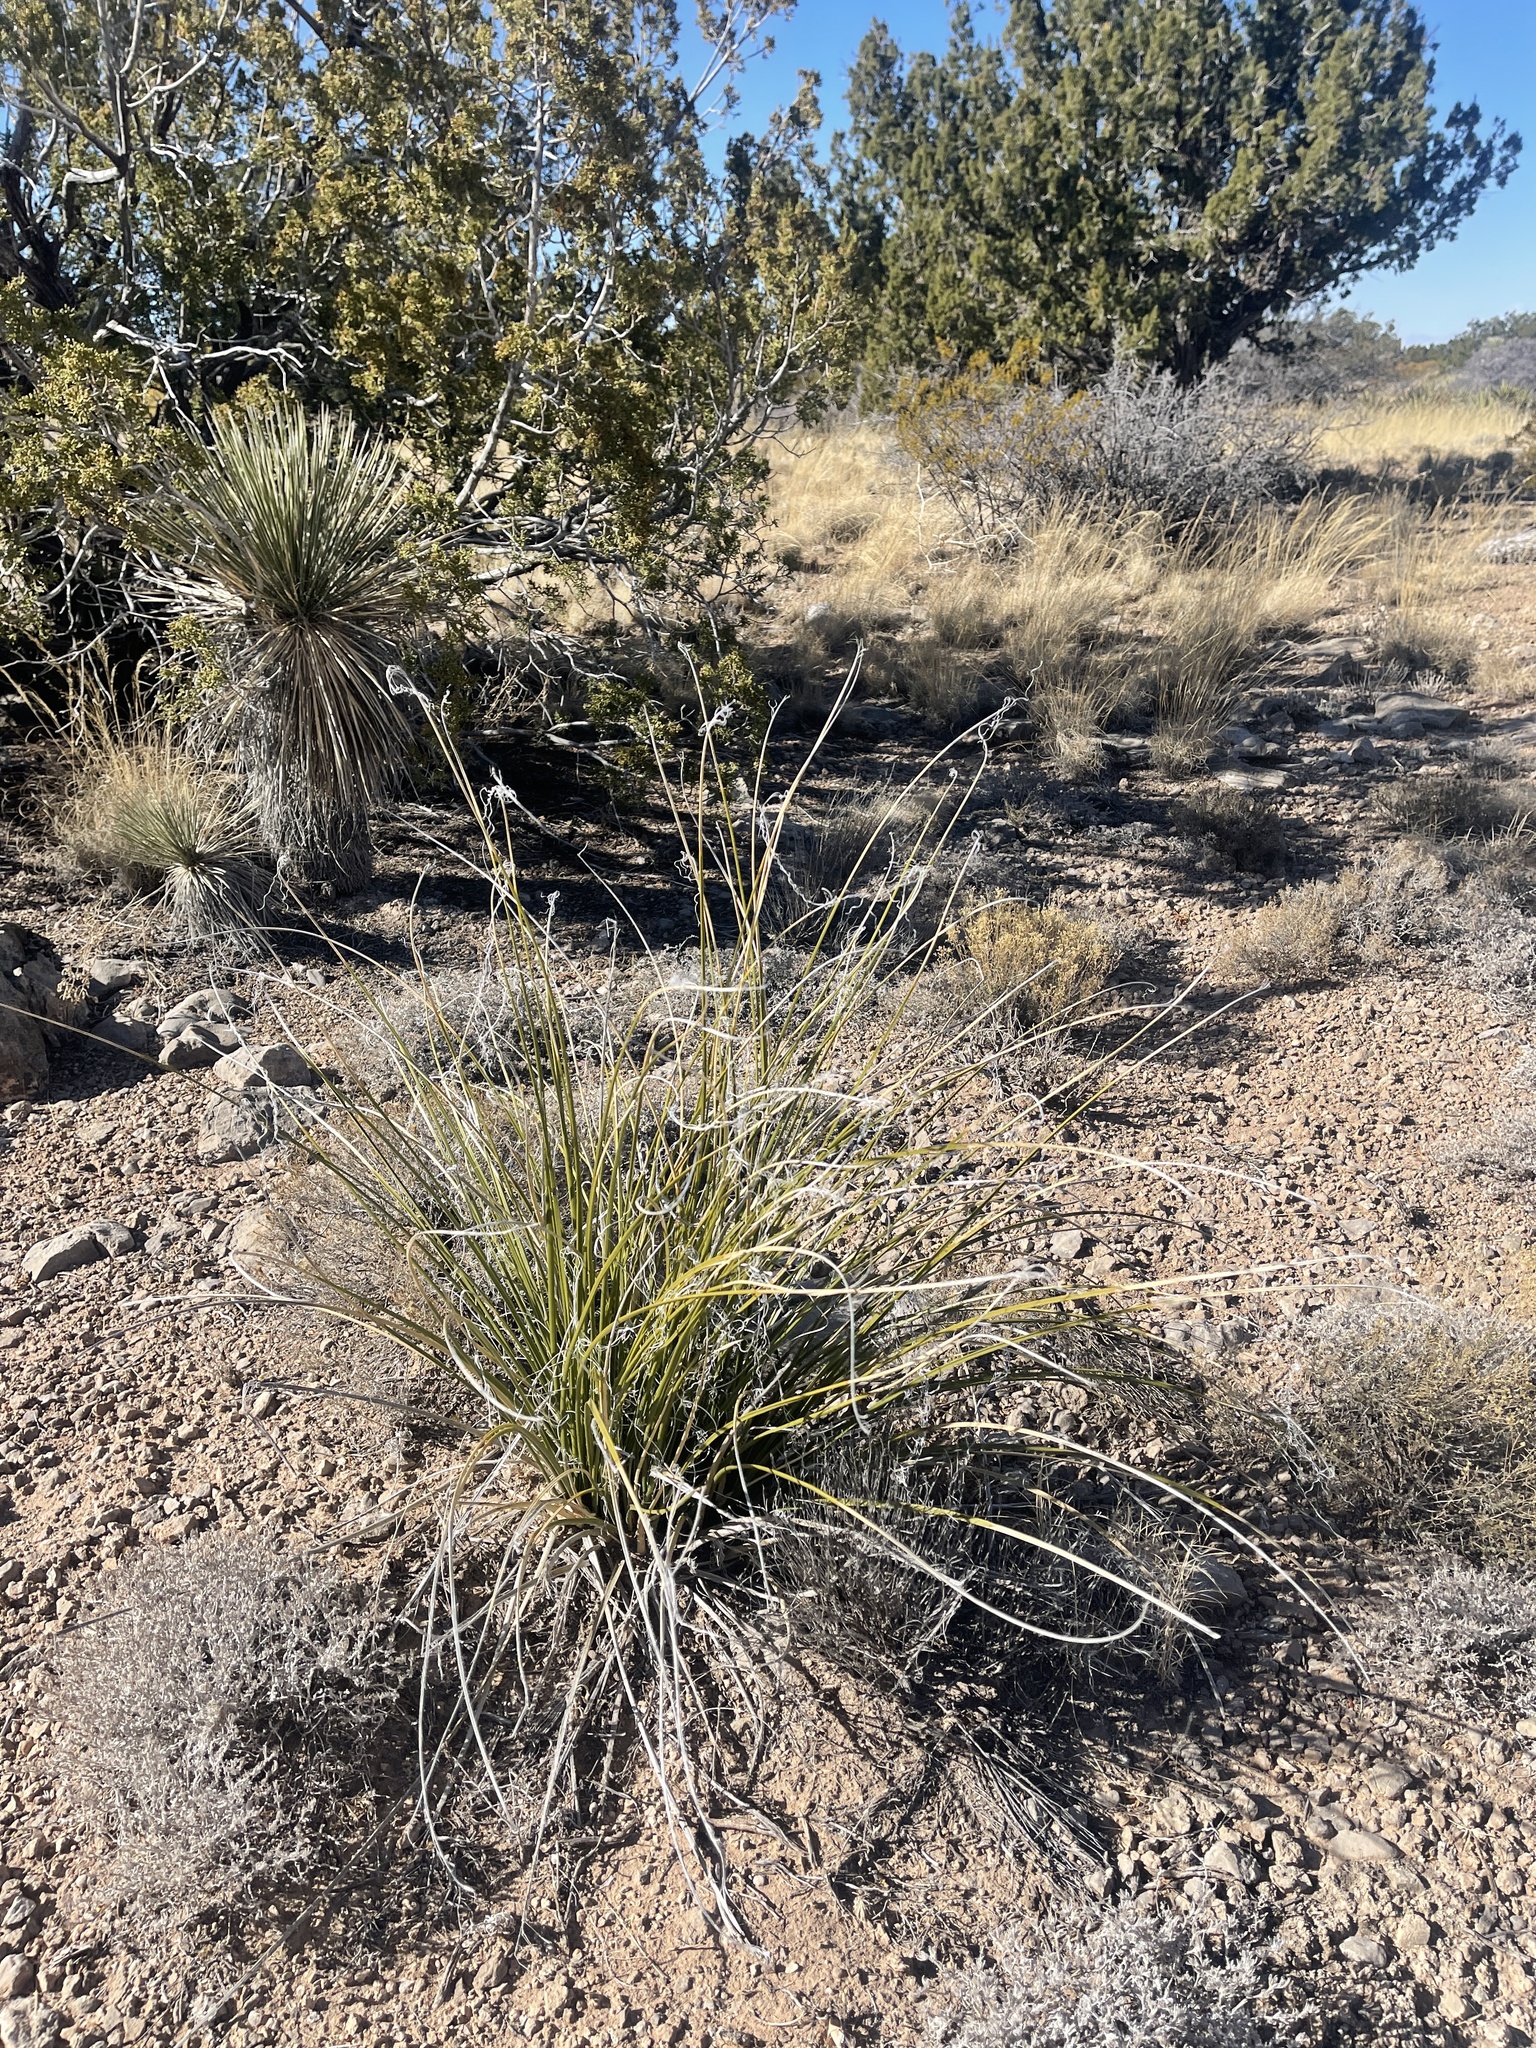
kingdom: Plantae
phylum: Tracheophyta
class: Liliopsida
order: Asparagales
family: Asparagaceae
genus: Nolina
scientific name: Nolina microcarpa
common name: Bear-grass
